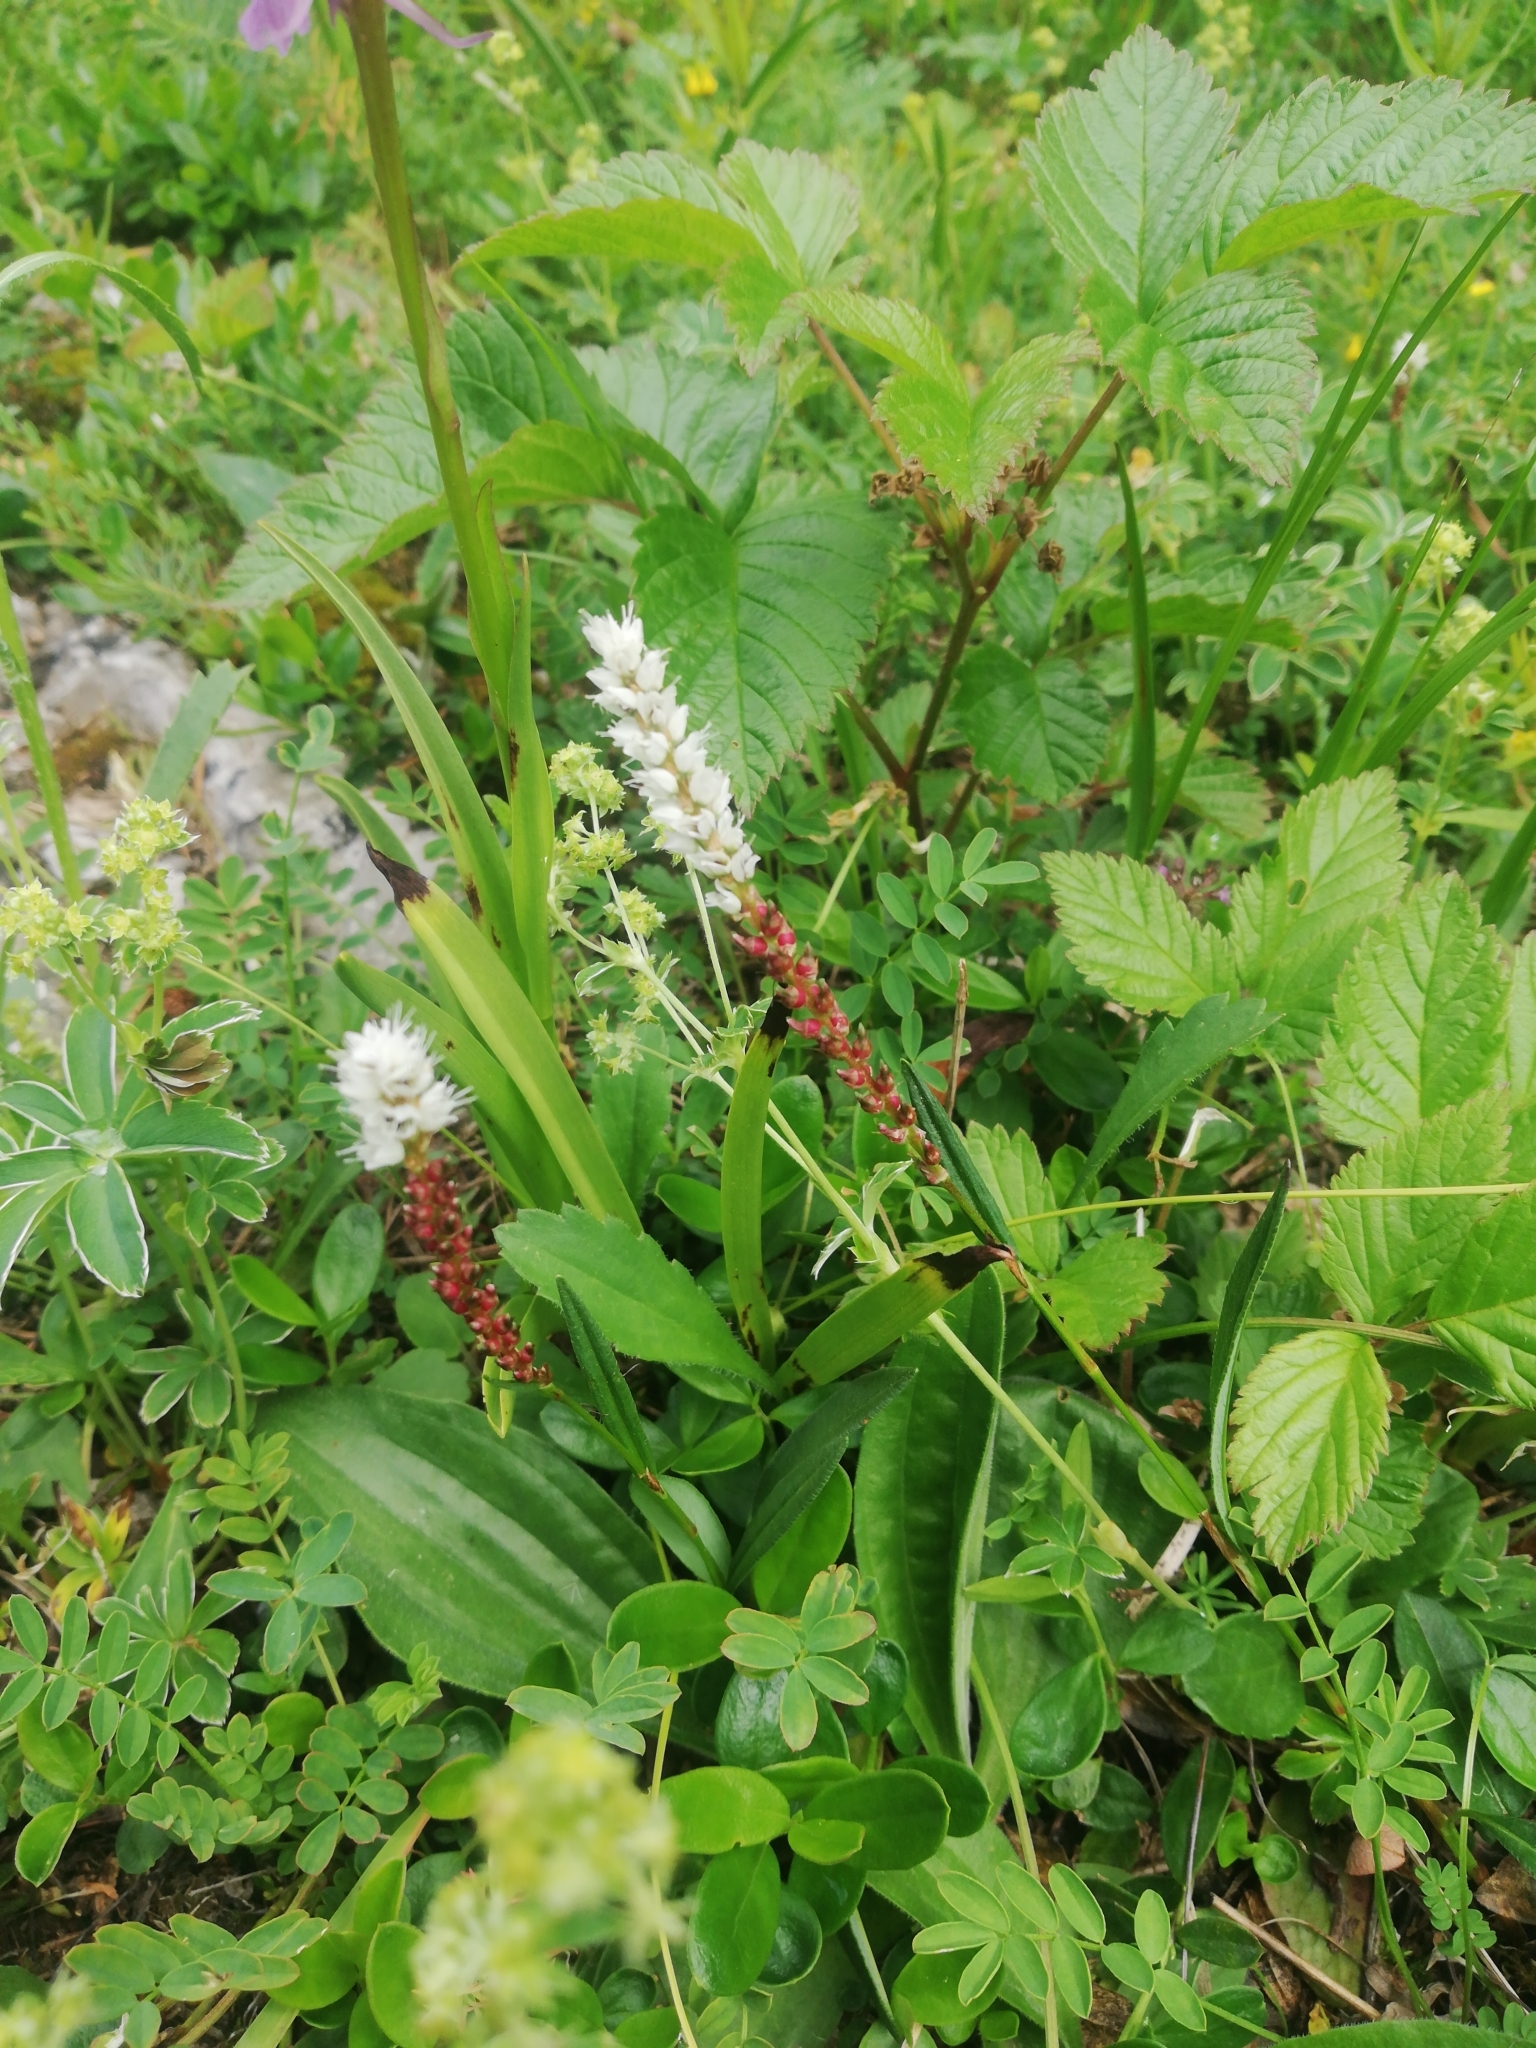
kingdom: Plantae
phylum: Tracheophyta
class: Magnoliopsida
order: Caryophyllales
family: Polygonaceae
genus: Bistorta
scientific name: Bistorta vivipara
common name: Alpine bistort
